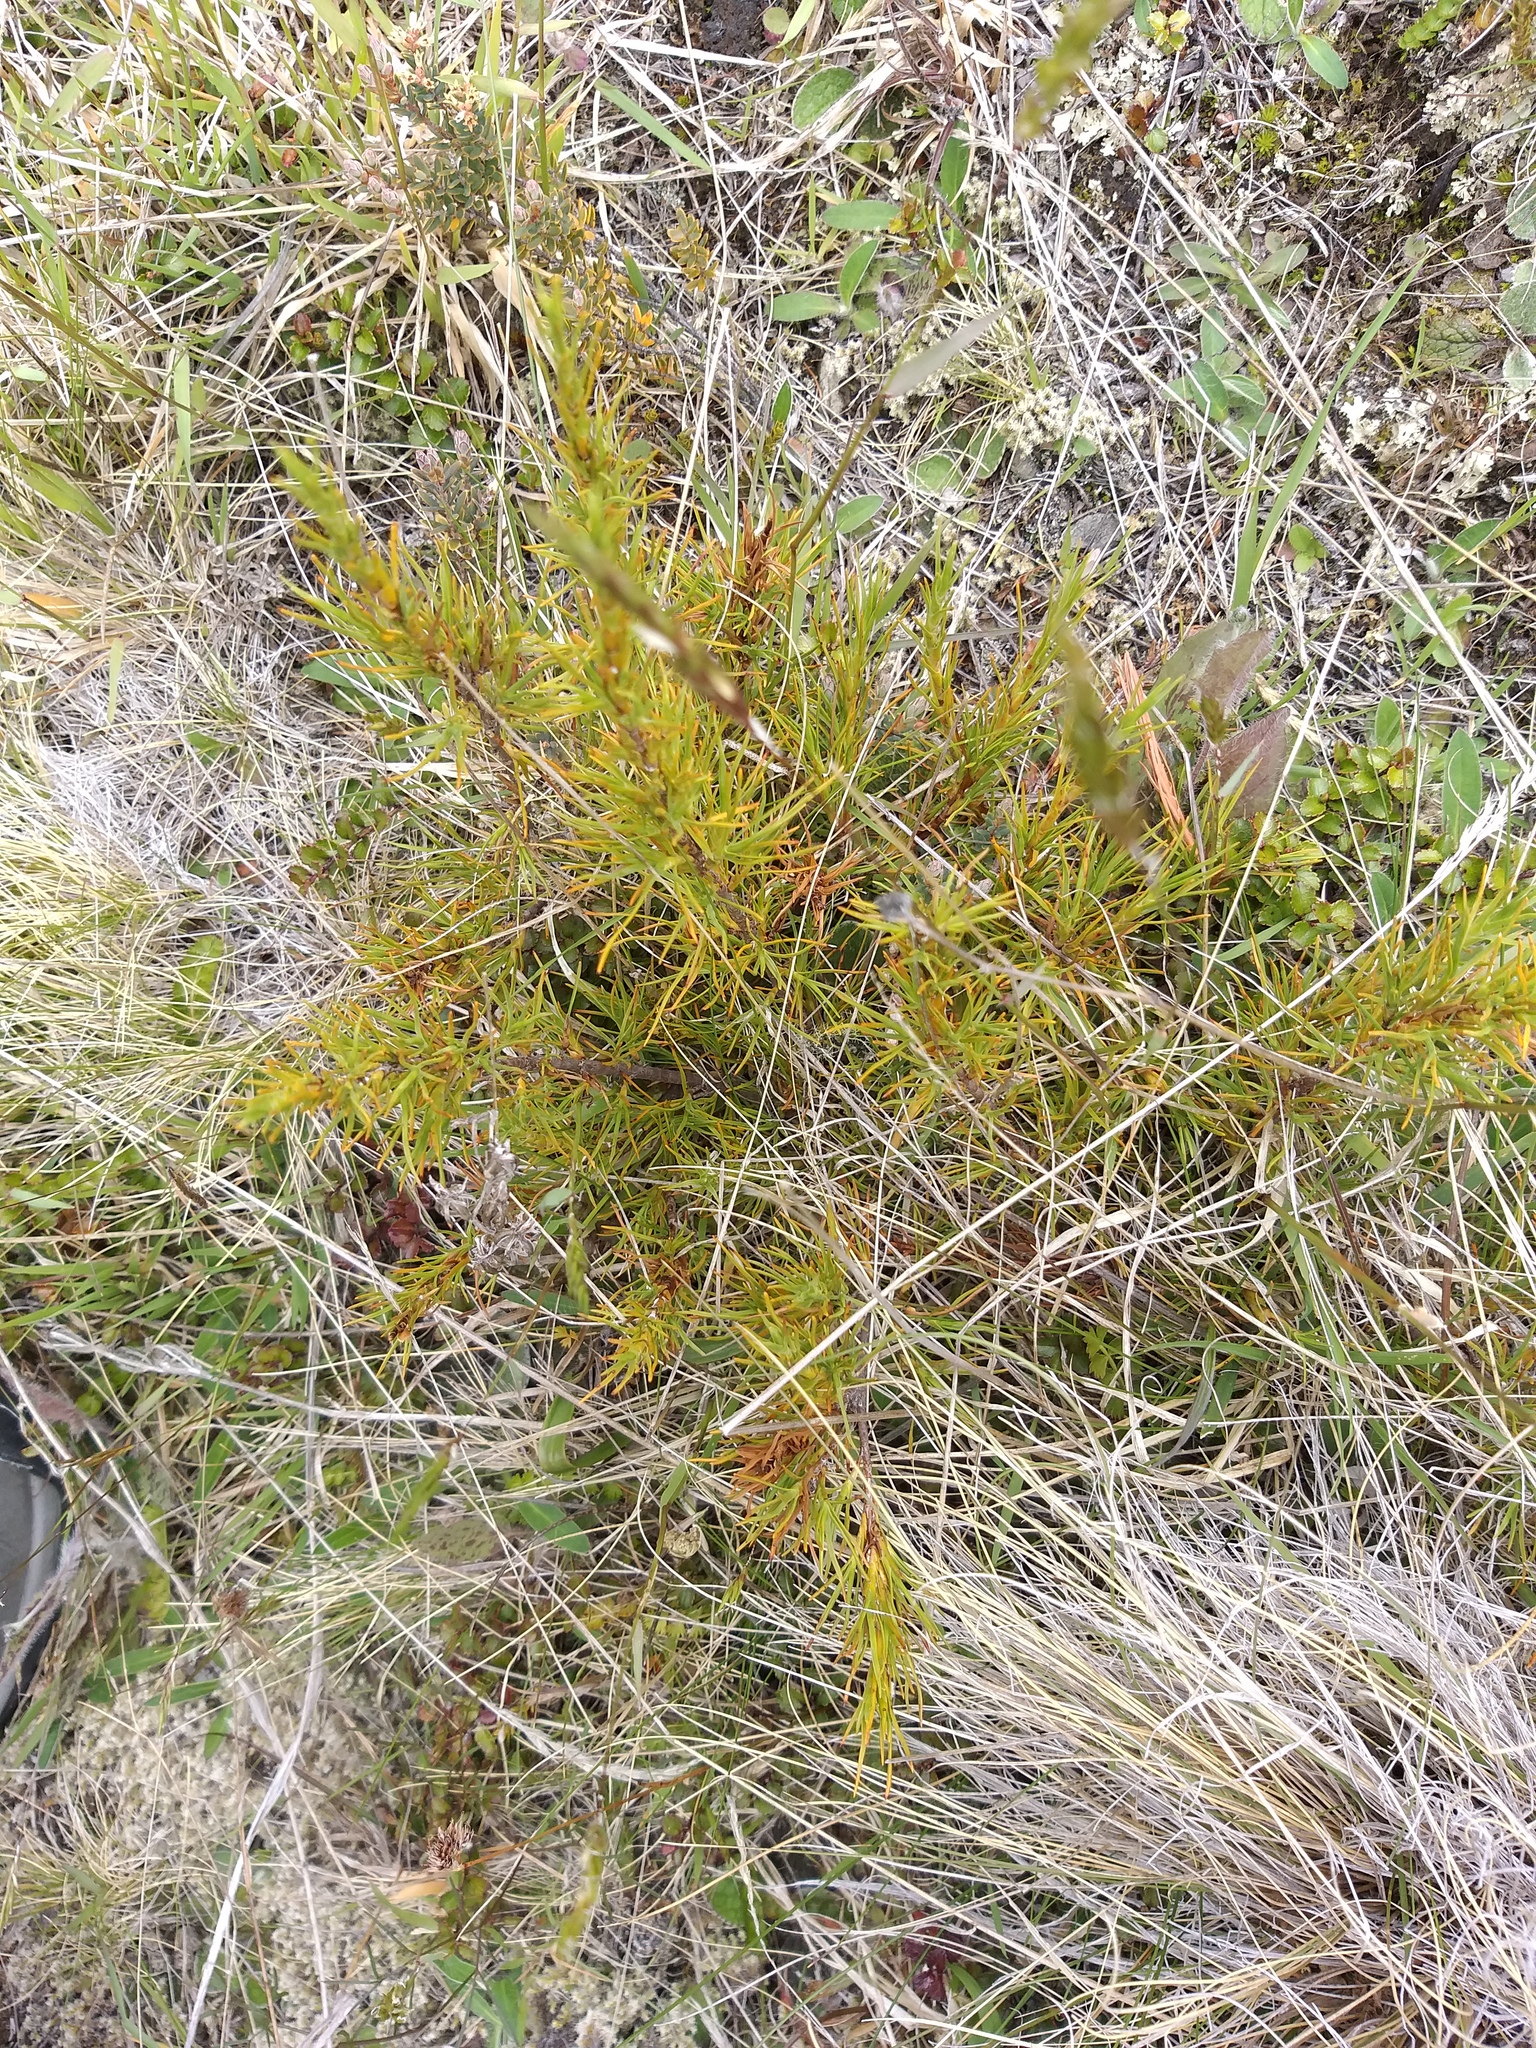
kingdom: Plantae
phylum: Tracheophyta
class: Magnoliopsida
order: Ericales
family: Ericaceae
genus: Dracophyllum
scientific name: Dracophyllum rosmarinifolium
